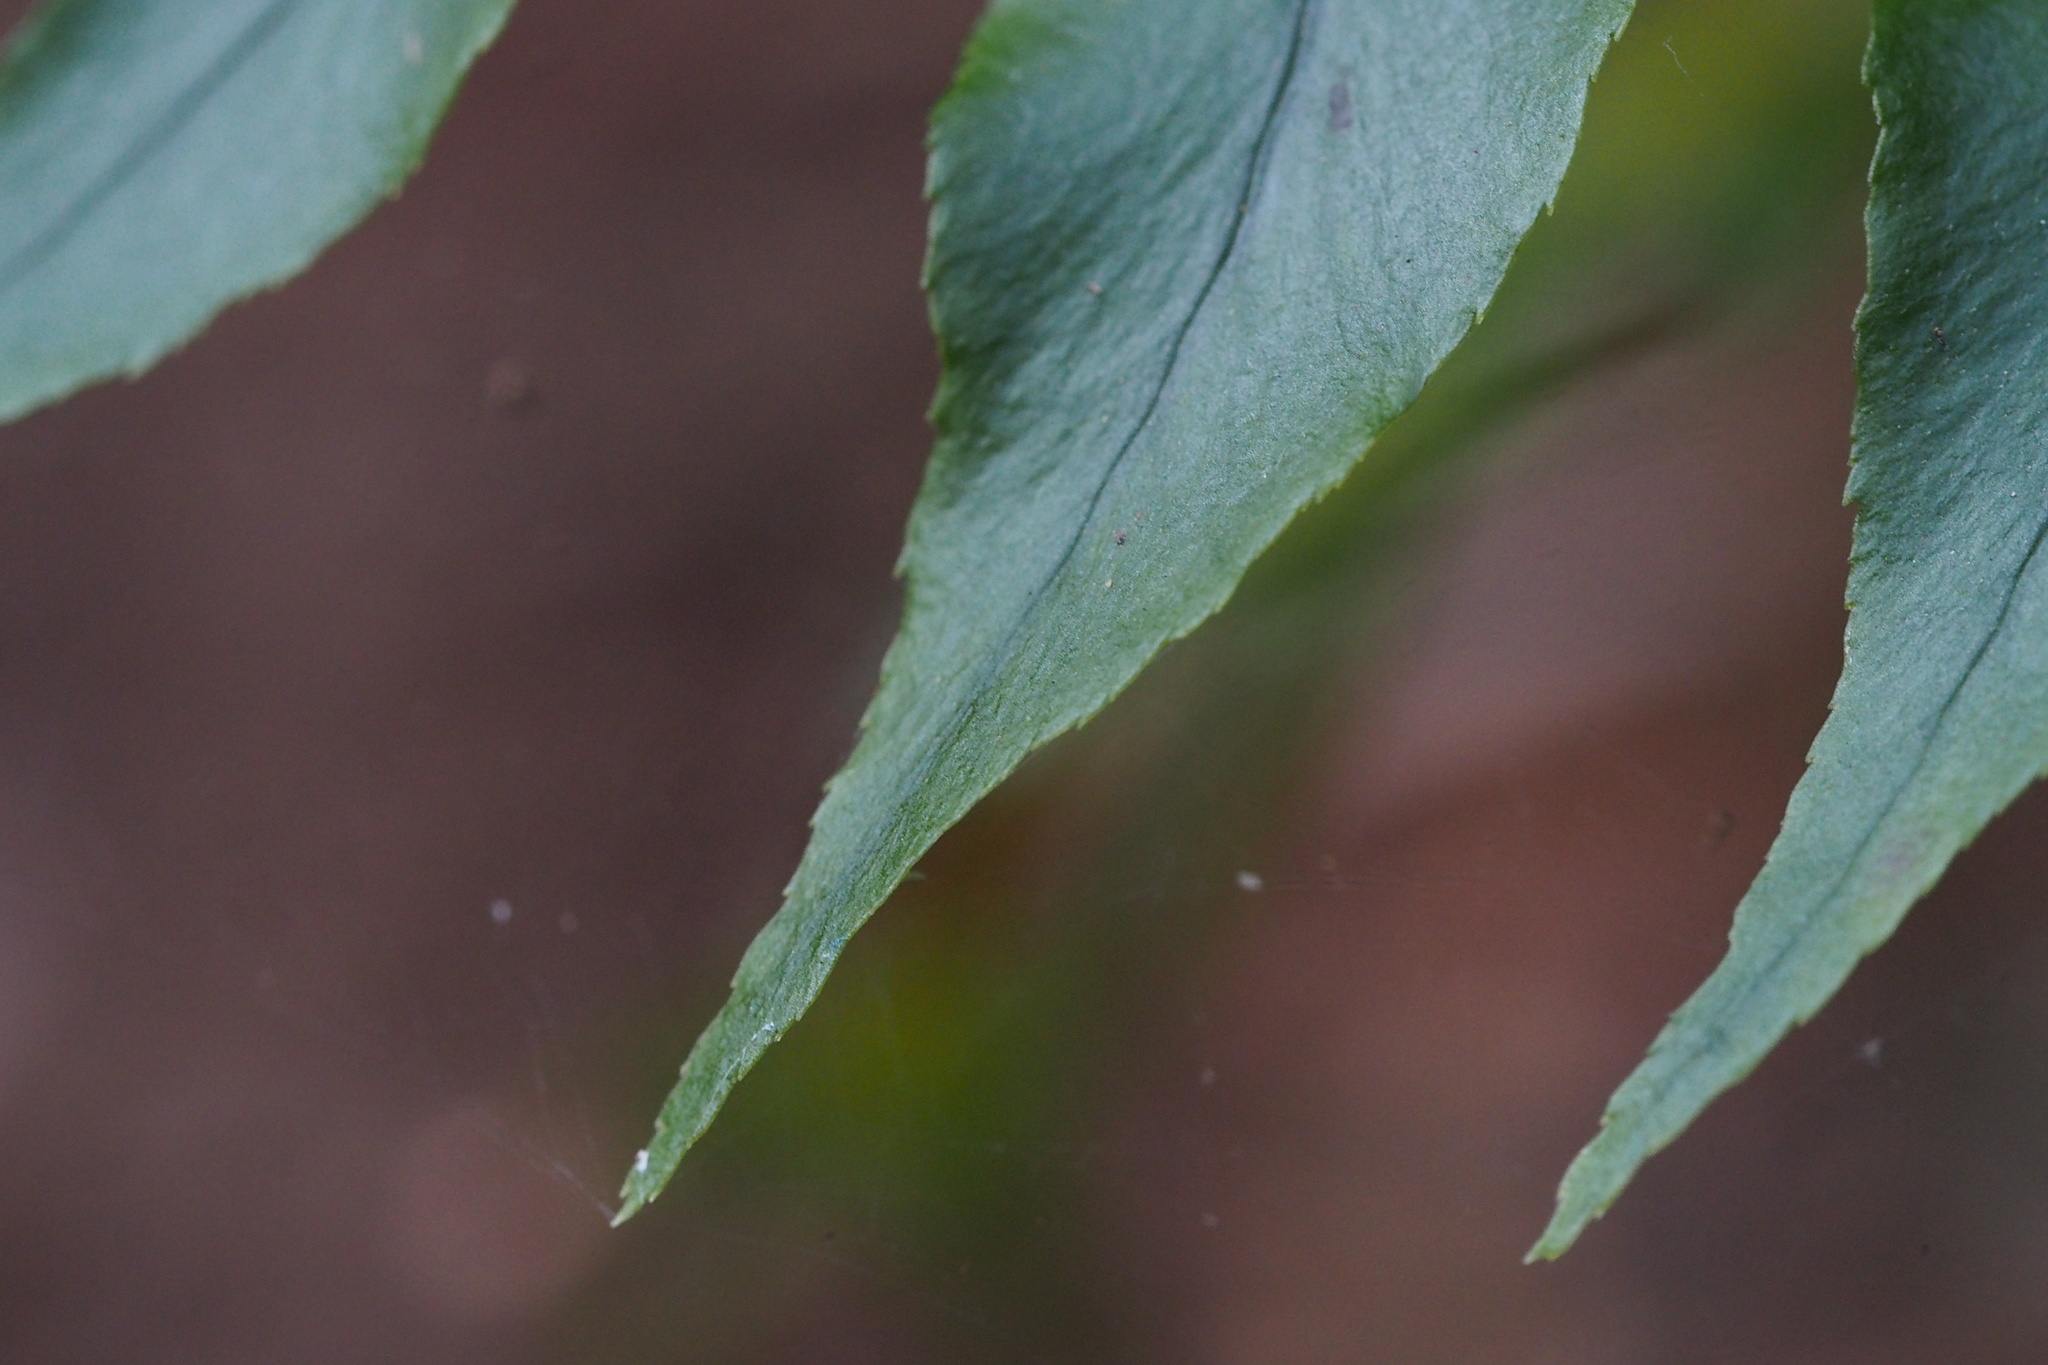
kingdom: Plantae
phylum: Tracheophyta
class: Polypodiopsida
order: Polypodiales
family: Dryopteridaceae
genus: Cyrtomium
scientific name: Cyrtomium fortunei
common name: Asian netvein hollyfern
